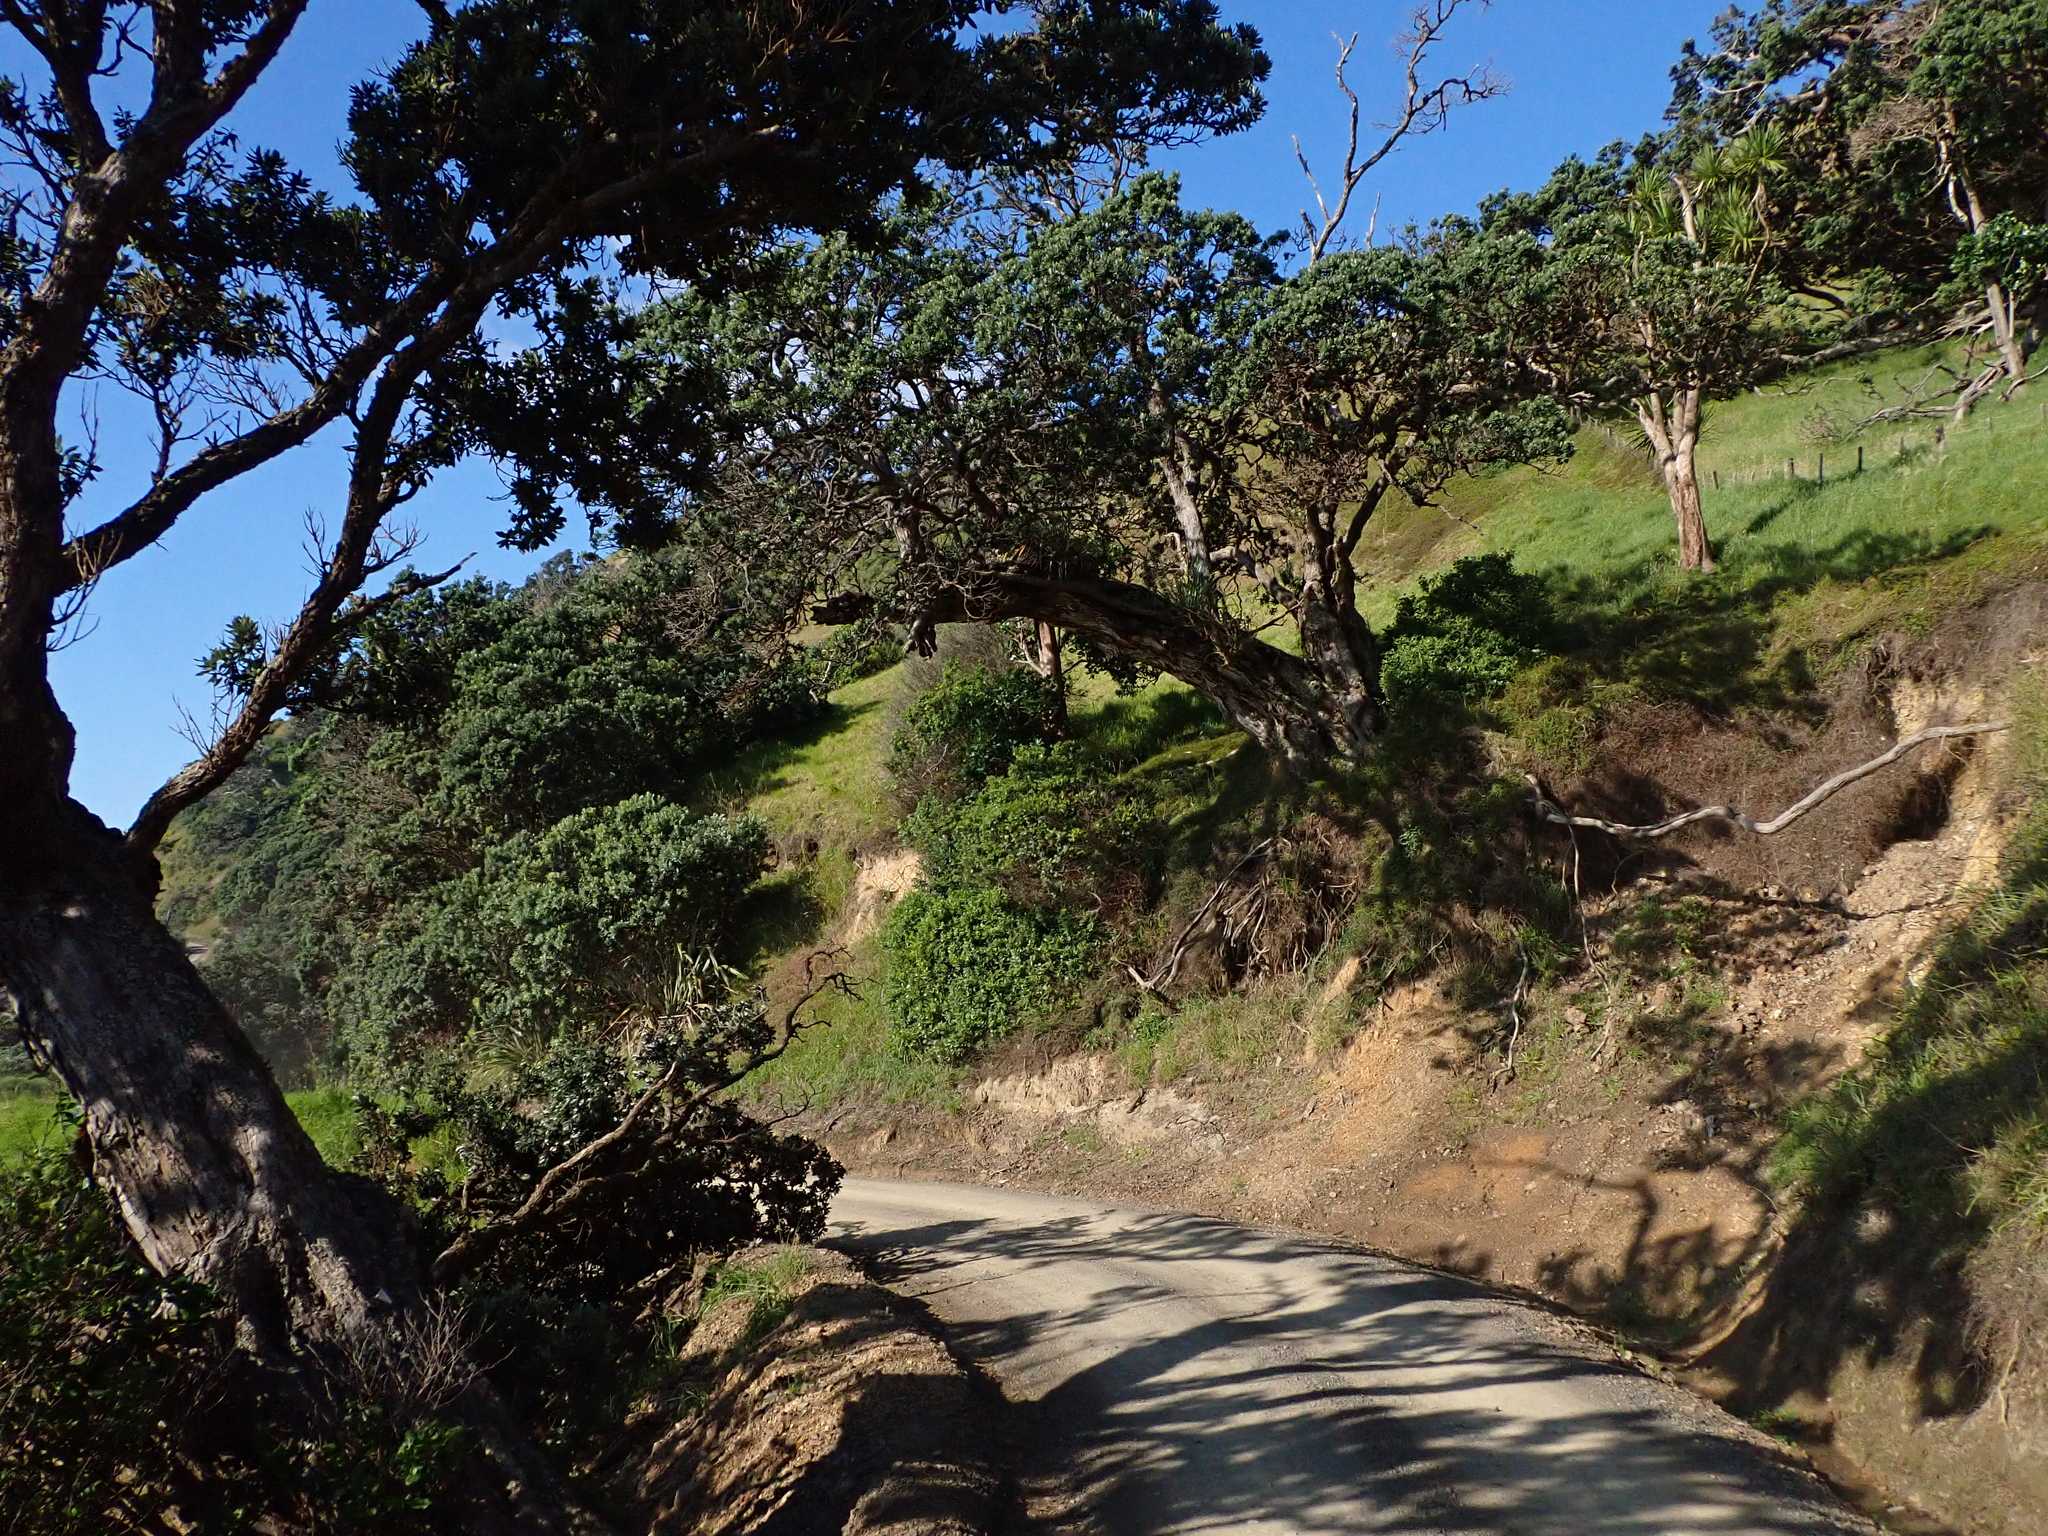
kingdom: Animalia
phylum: Platyhelminthes
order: Tricladida
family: Geoplanidae
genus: Bipalium
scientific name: Bipalium kewense
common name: Hammerhead flatworm
